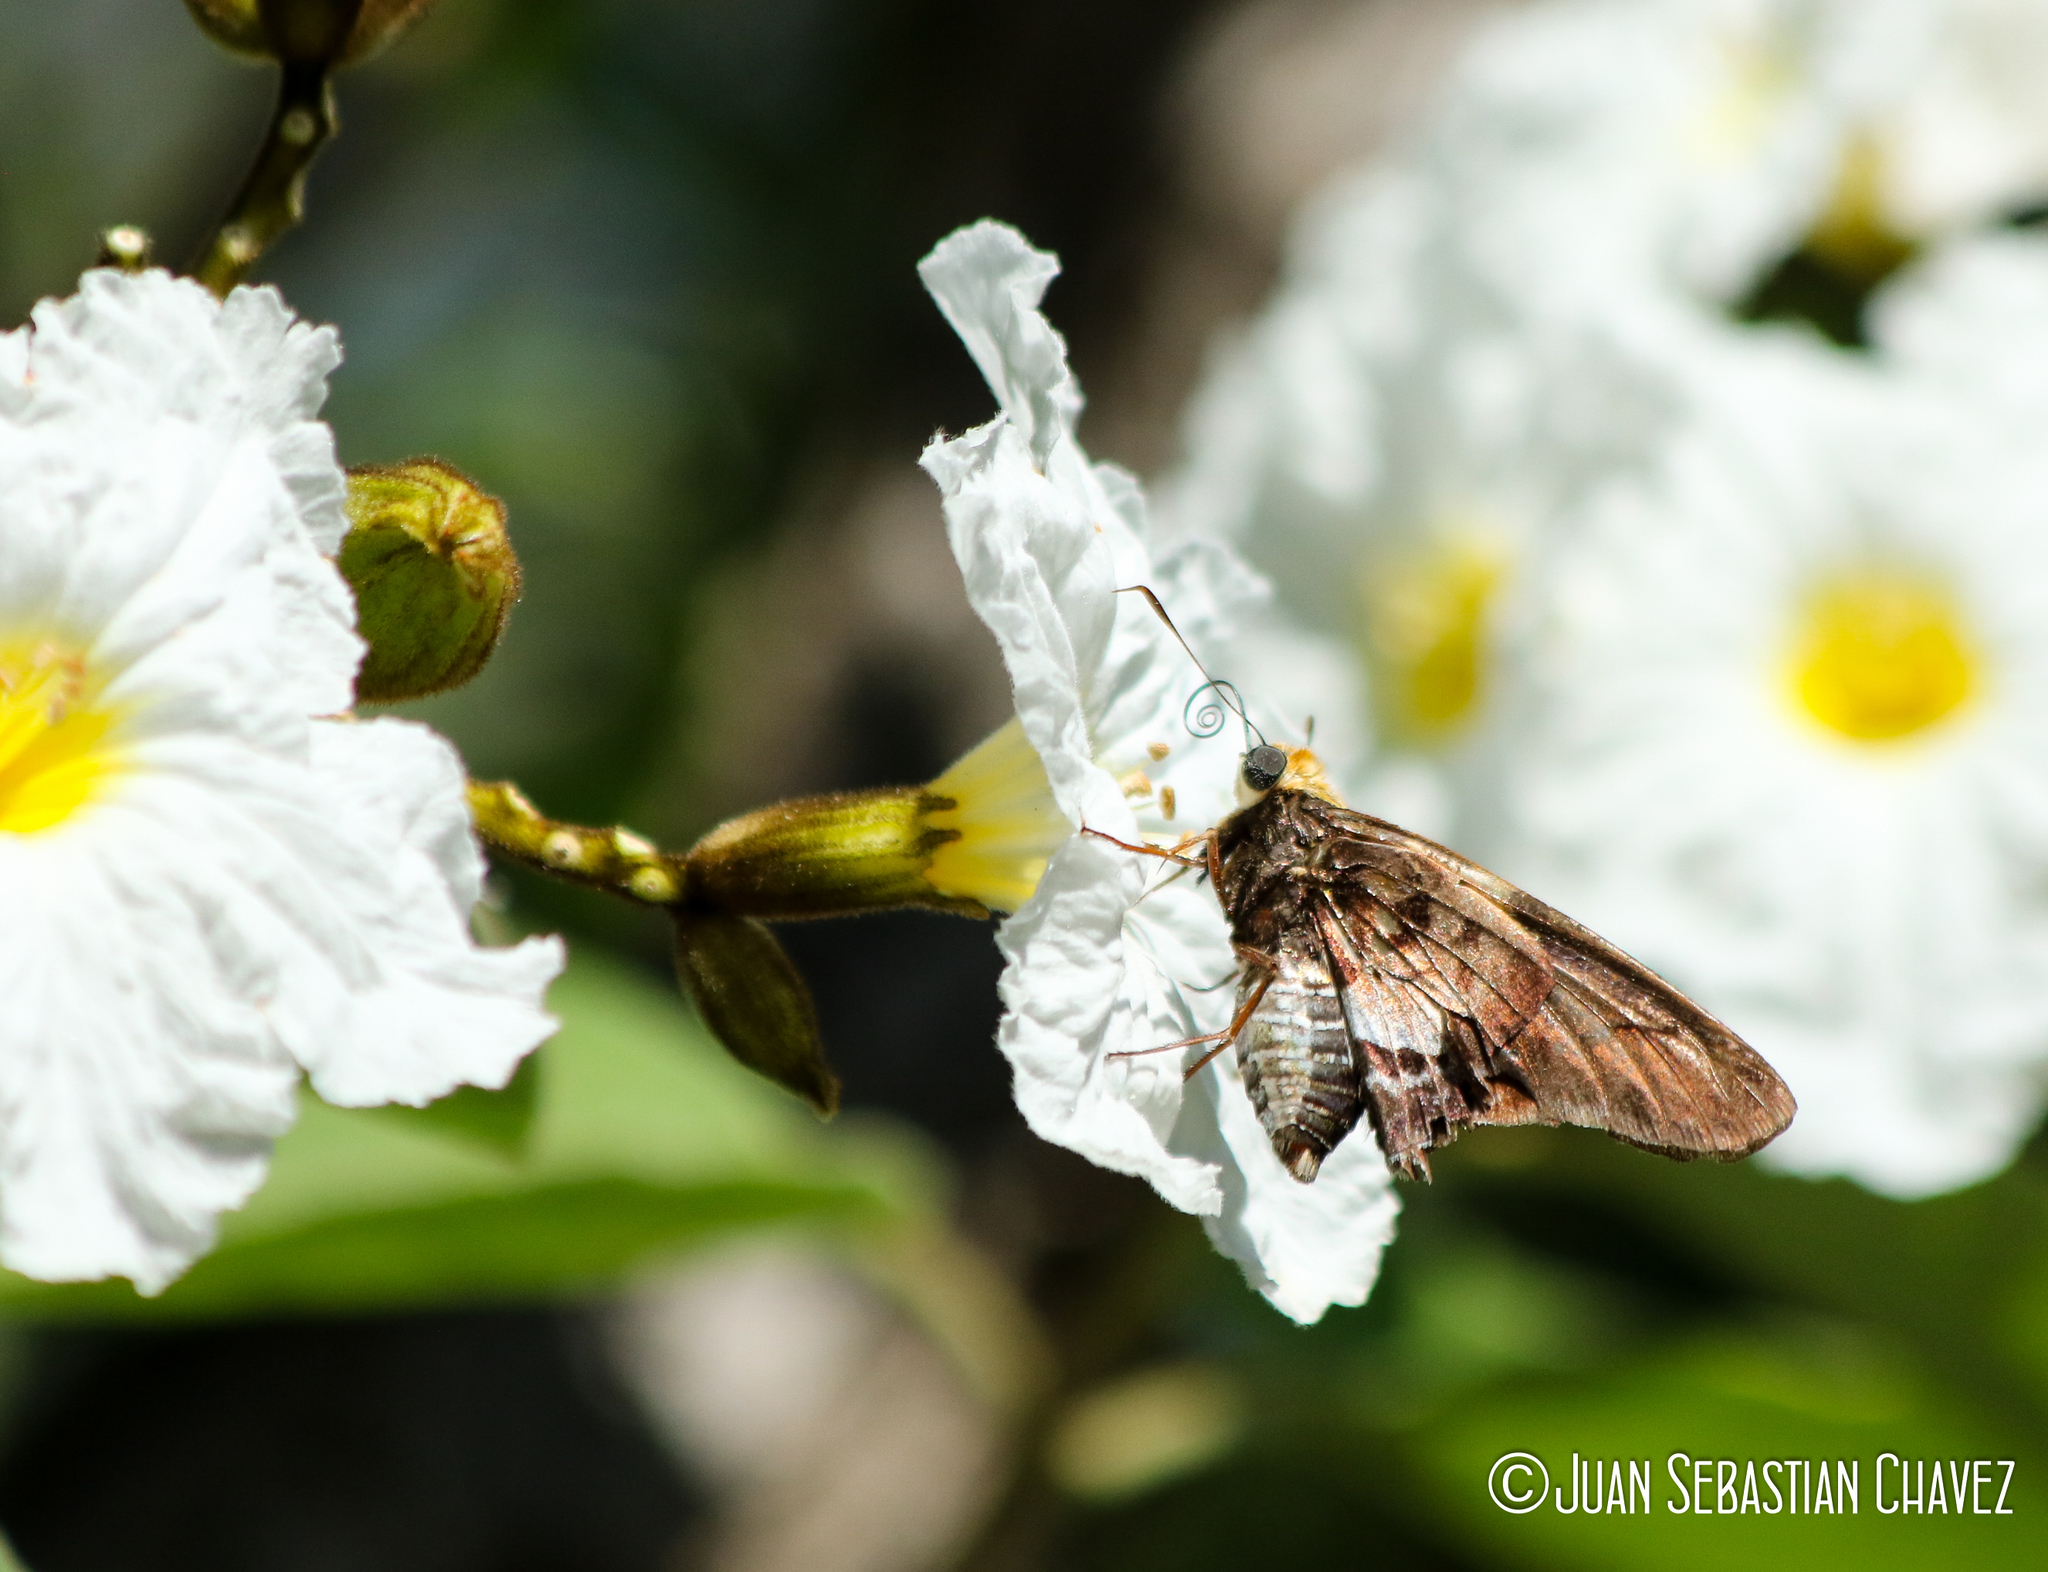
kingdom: Animalia
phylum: Arthropoda
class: Insecta
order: Lepidoptera
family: Hesperiidae
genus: Proteides
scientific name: Proteides mercurius
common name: Mercurial skipper
